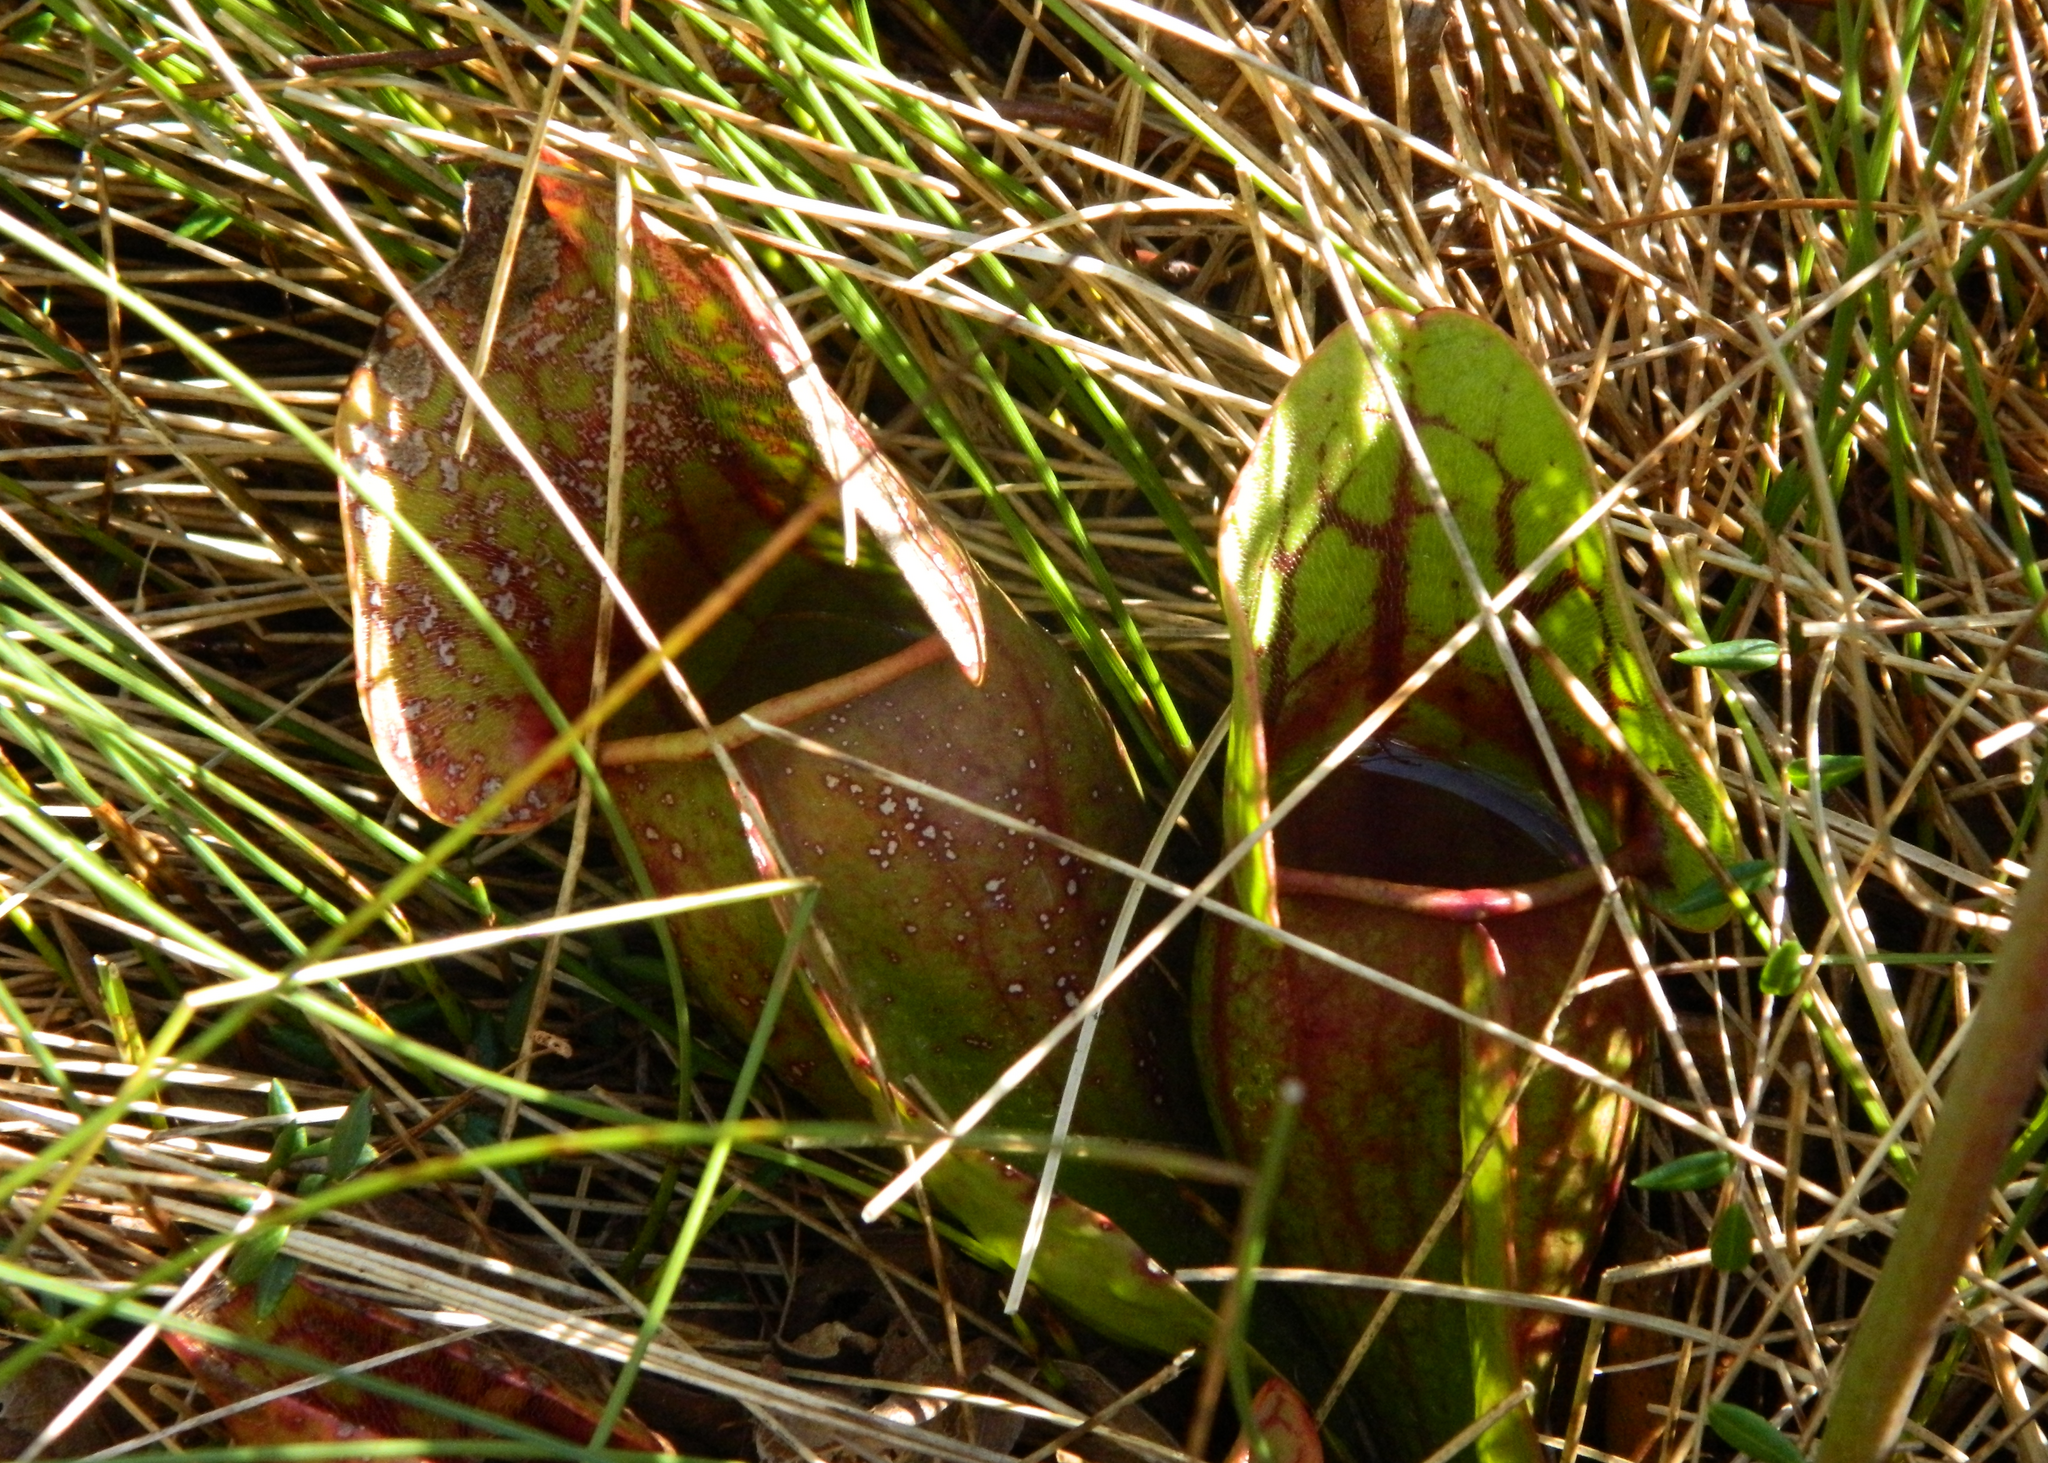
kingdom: Plantae
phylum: Tracheophyta
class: Magnoliopsida
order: Ericales
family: Sarraceniaceae
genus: Sarracenia
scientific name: Sarracenia purpurea
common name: Pitcherplant
